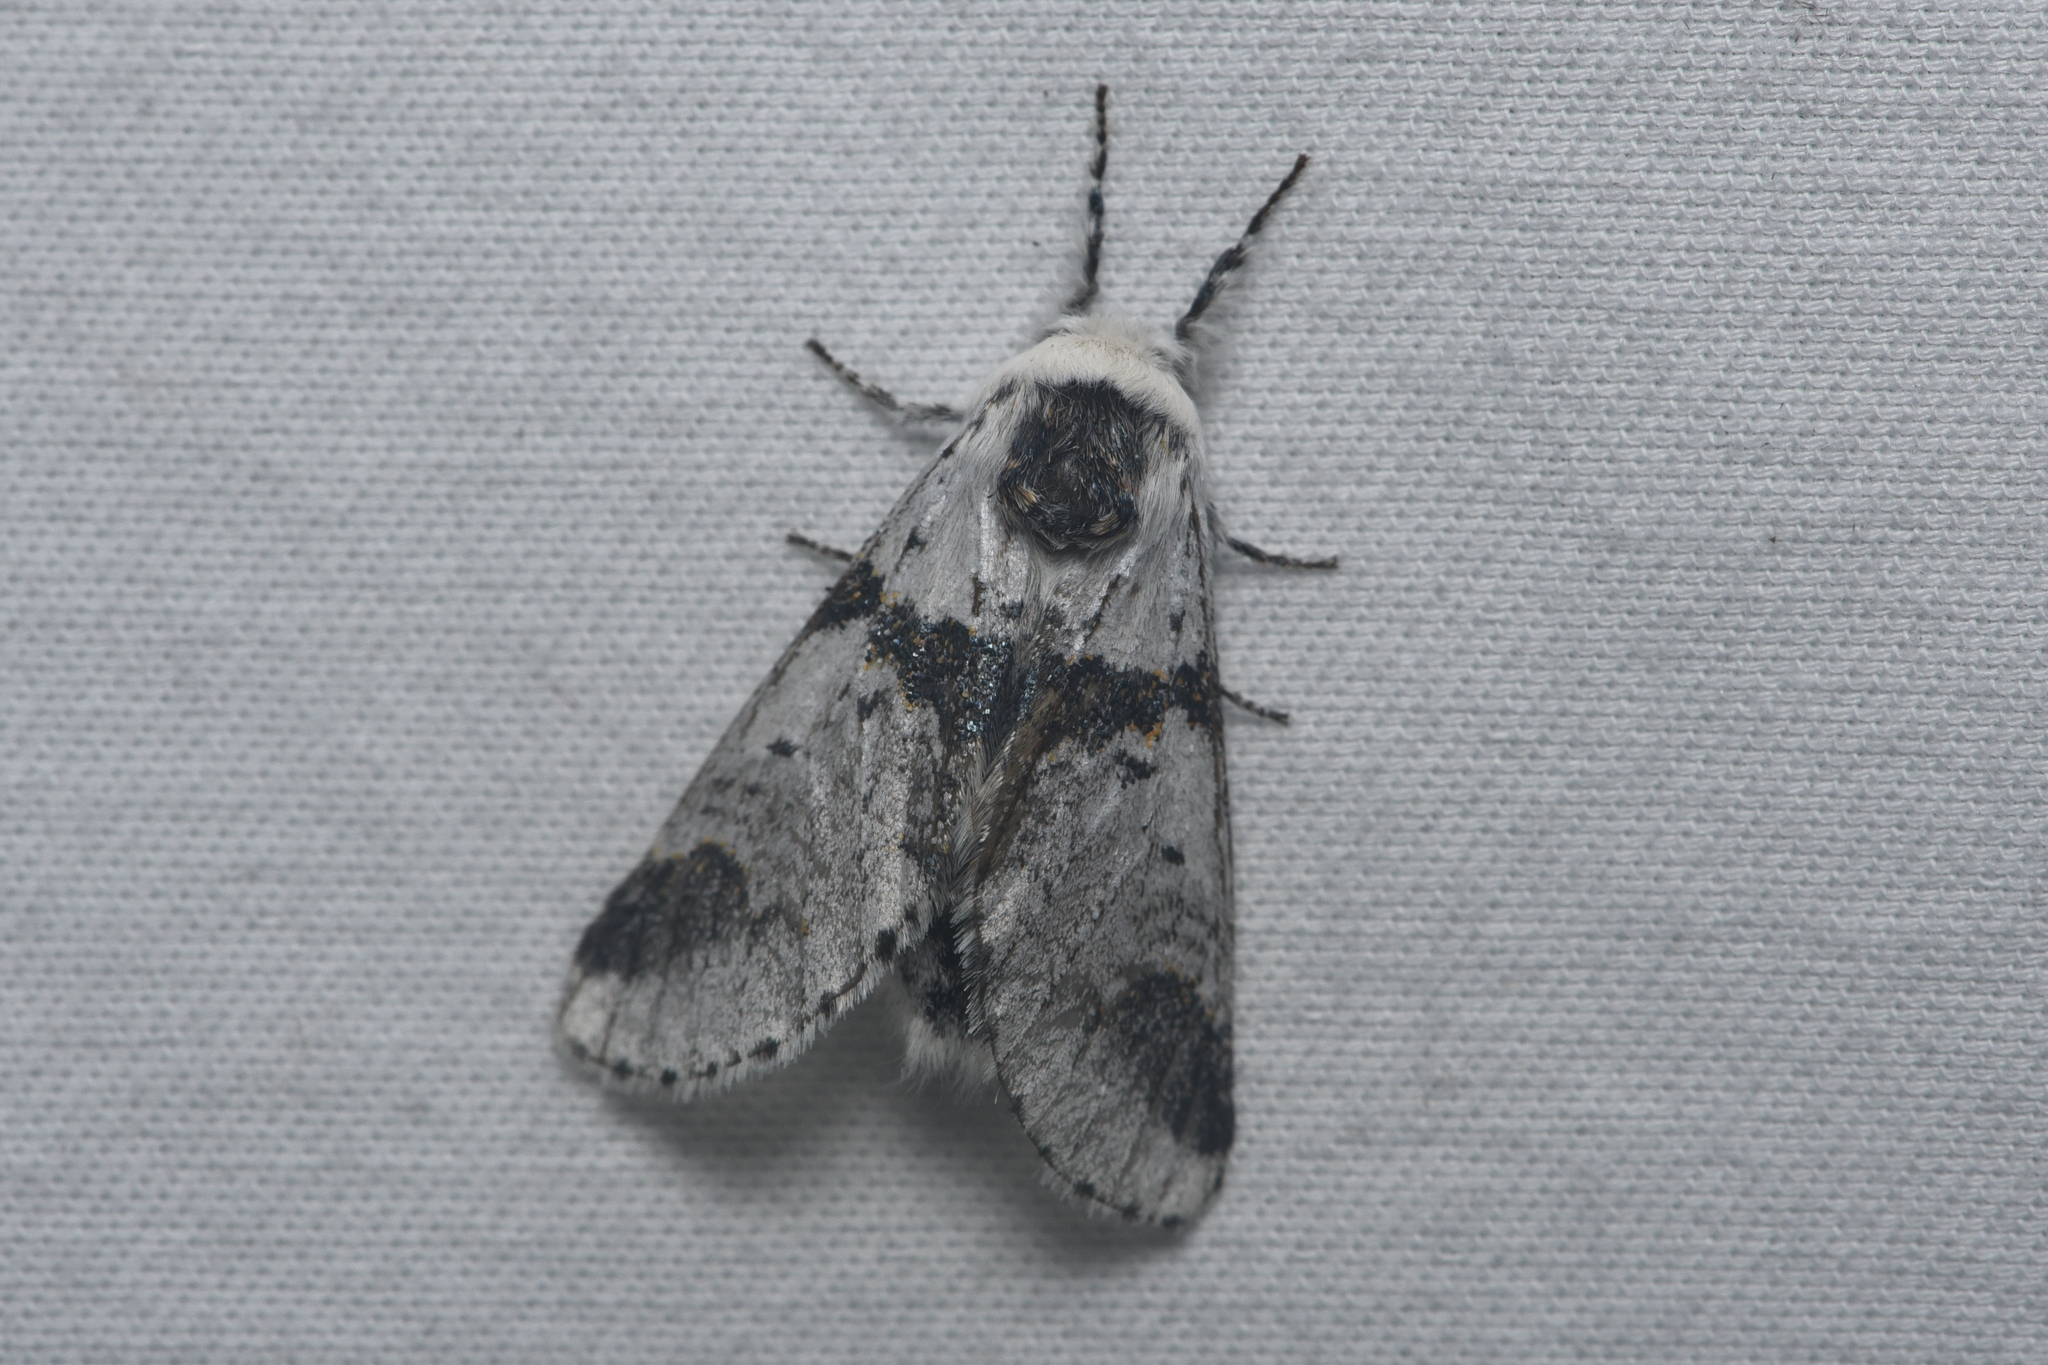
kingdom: Animalia
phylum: Arthropoda
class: Insecta
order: Lepidoptera
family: Notodontidae
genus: Furcula
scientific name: Furcula scolopendrina
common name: Zigzag furcula moth
